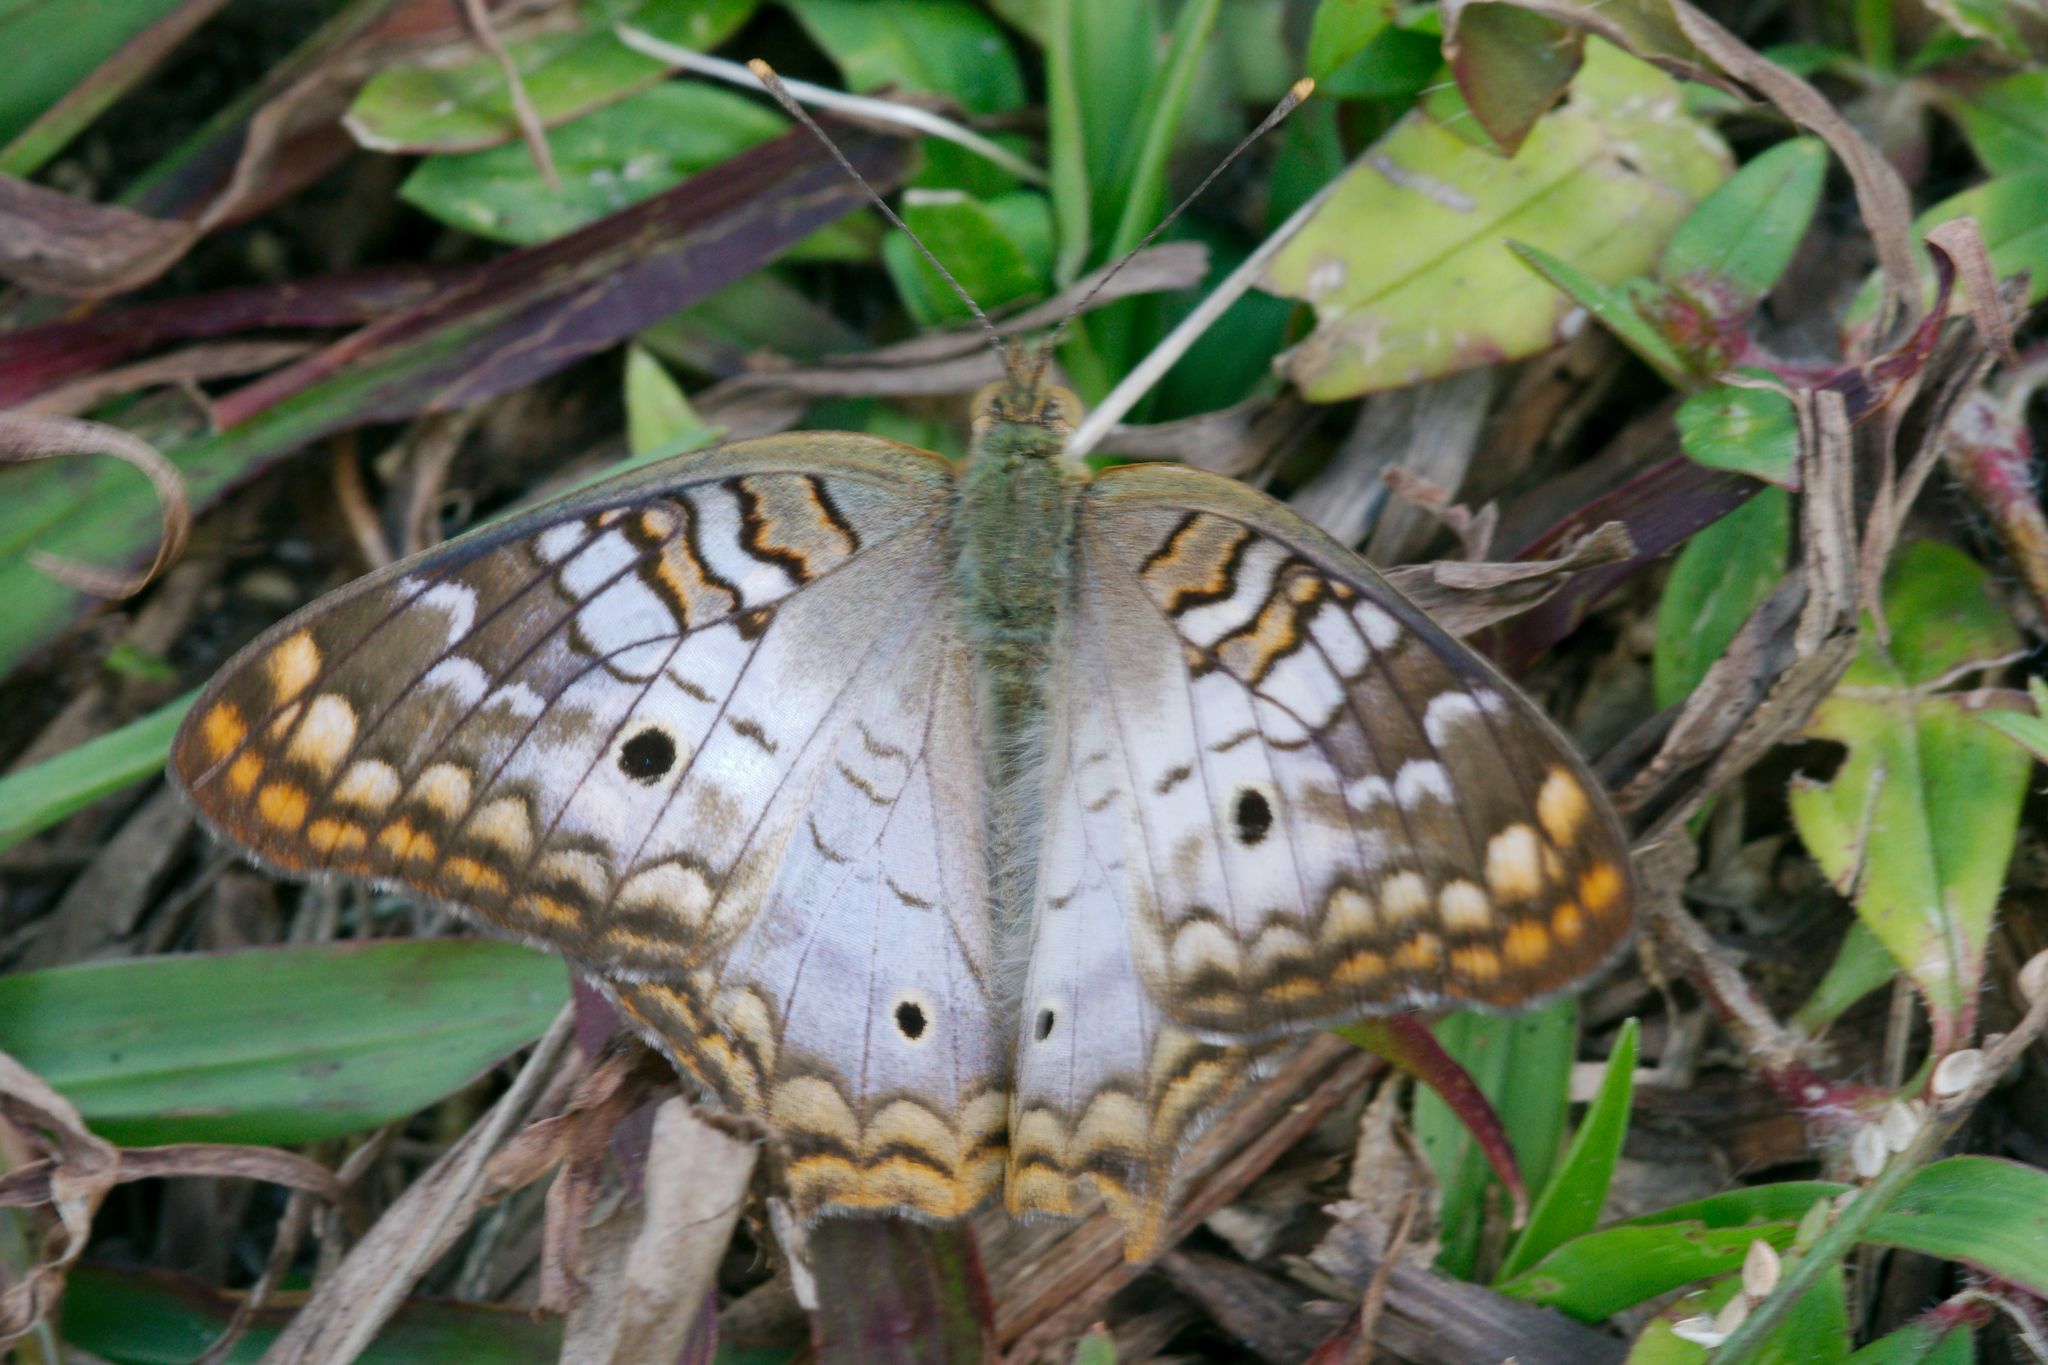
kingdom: Animalia
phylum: Arthropoda
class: Insecta
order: Lepidoptera
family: Nymphalidae
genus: Anartia
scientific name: Anartia jatrophae
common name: White peacock
